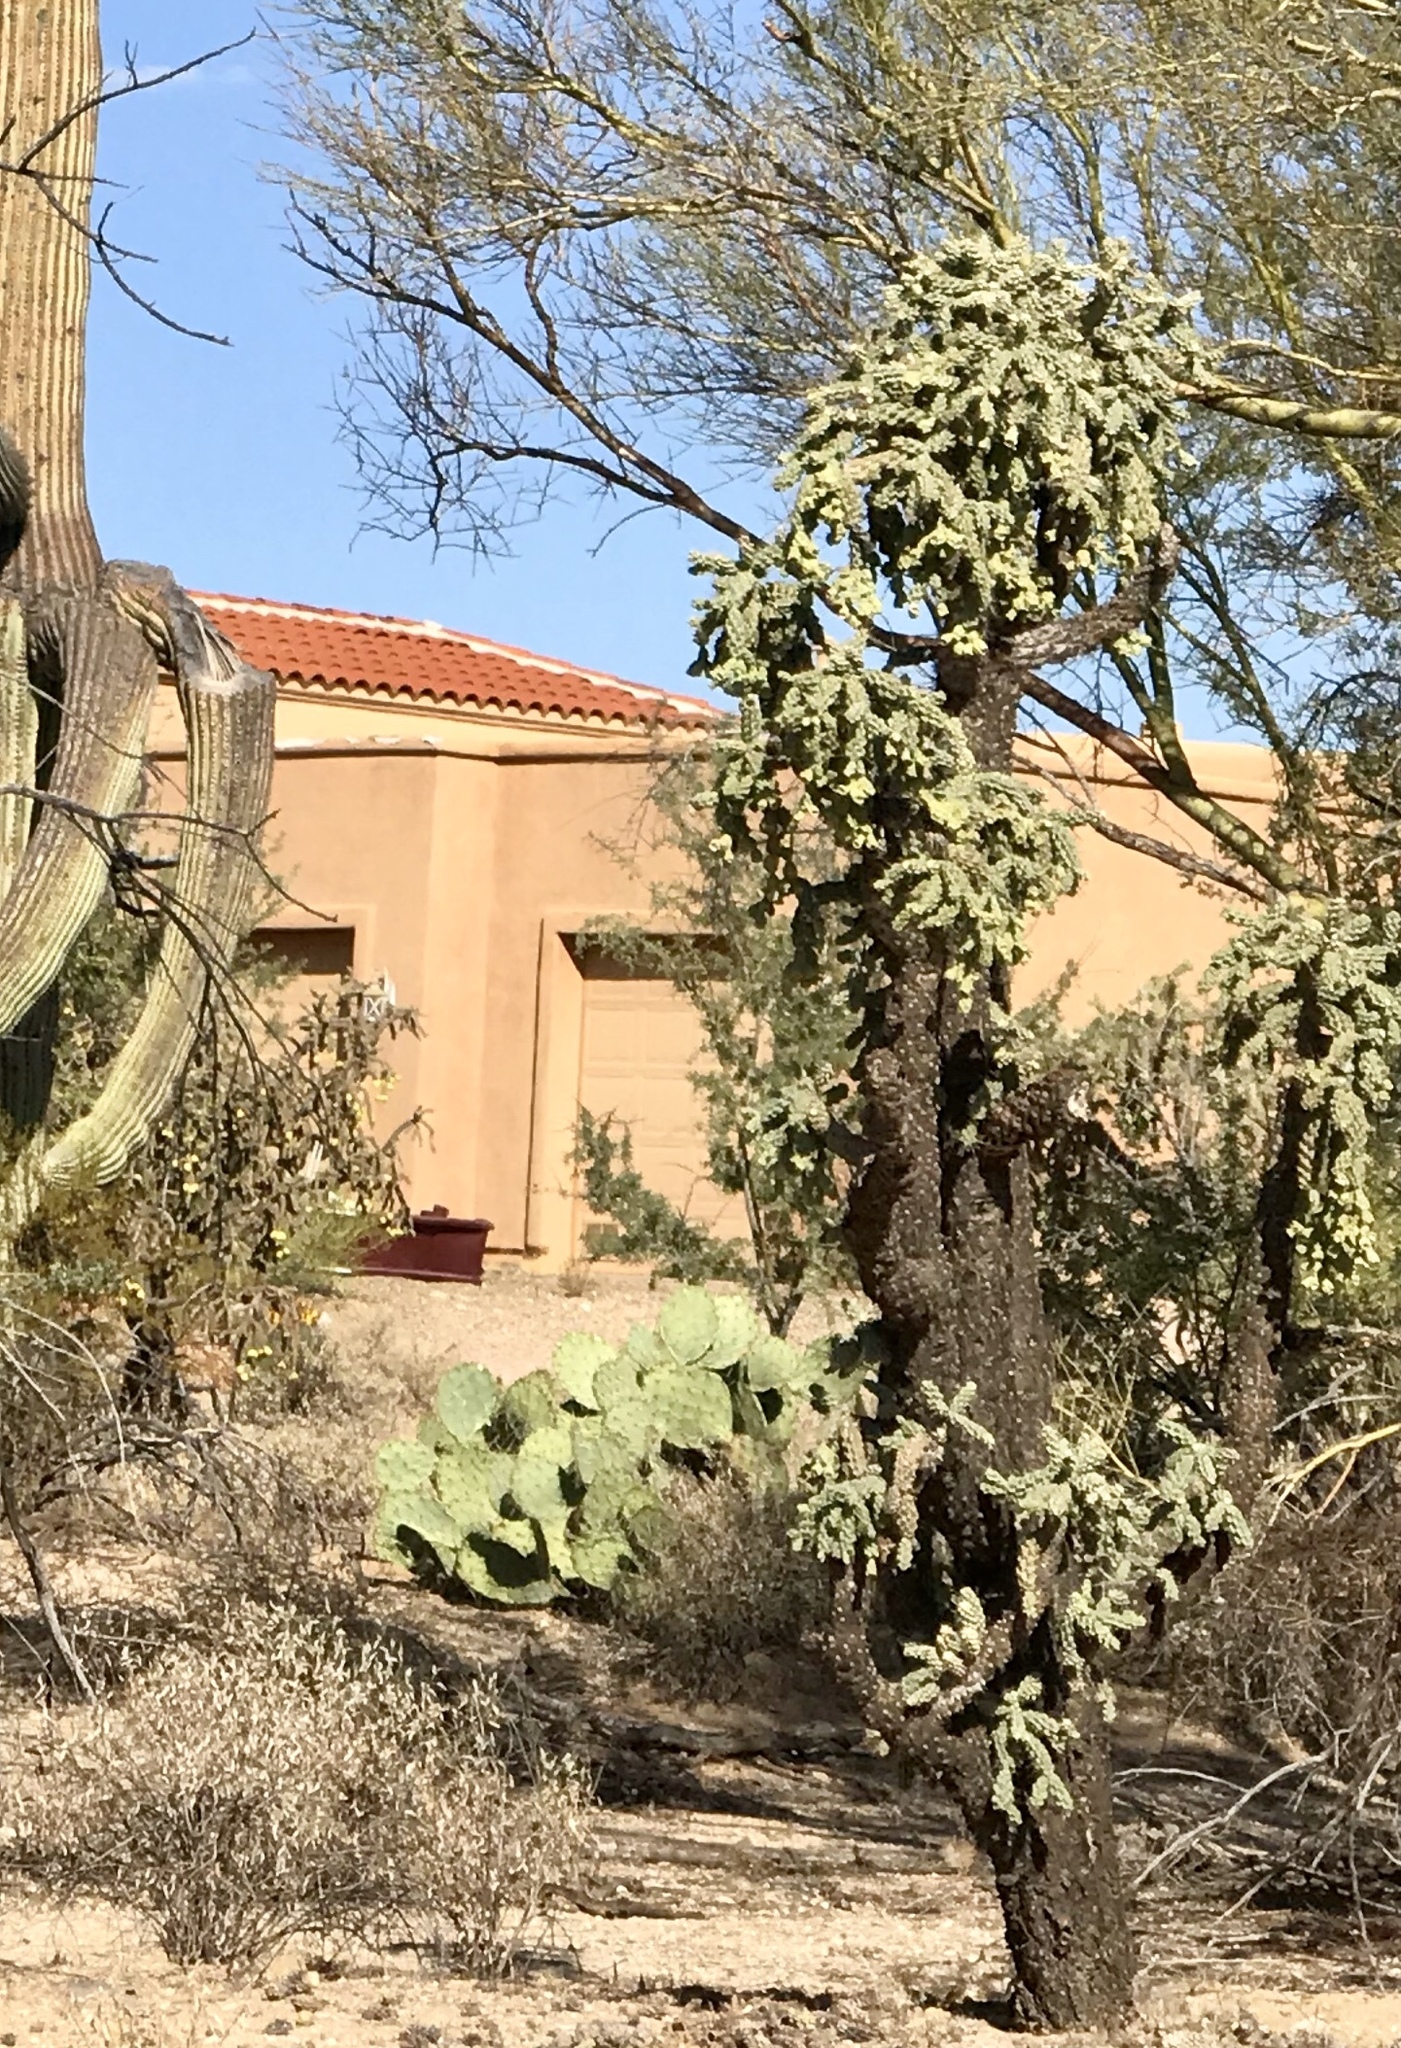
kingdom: Plantae
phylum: Tracheophyta
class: Magnoliopsida
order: Caryophyllales
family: Cactaceae
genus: Cylindropuntia
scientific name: Cylindropuntia fulgida
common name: Jumping cholla
